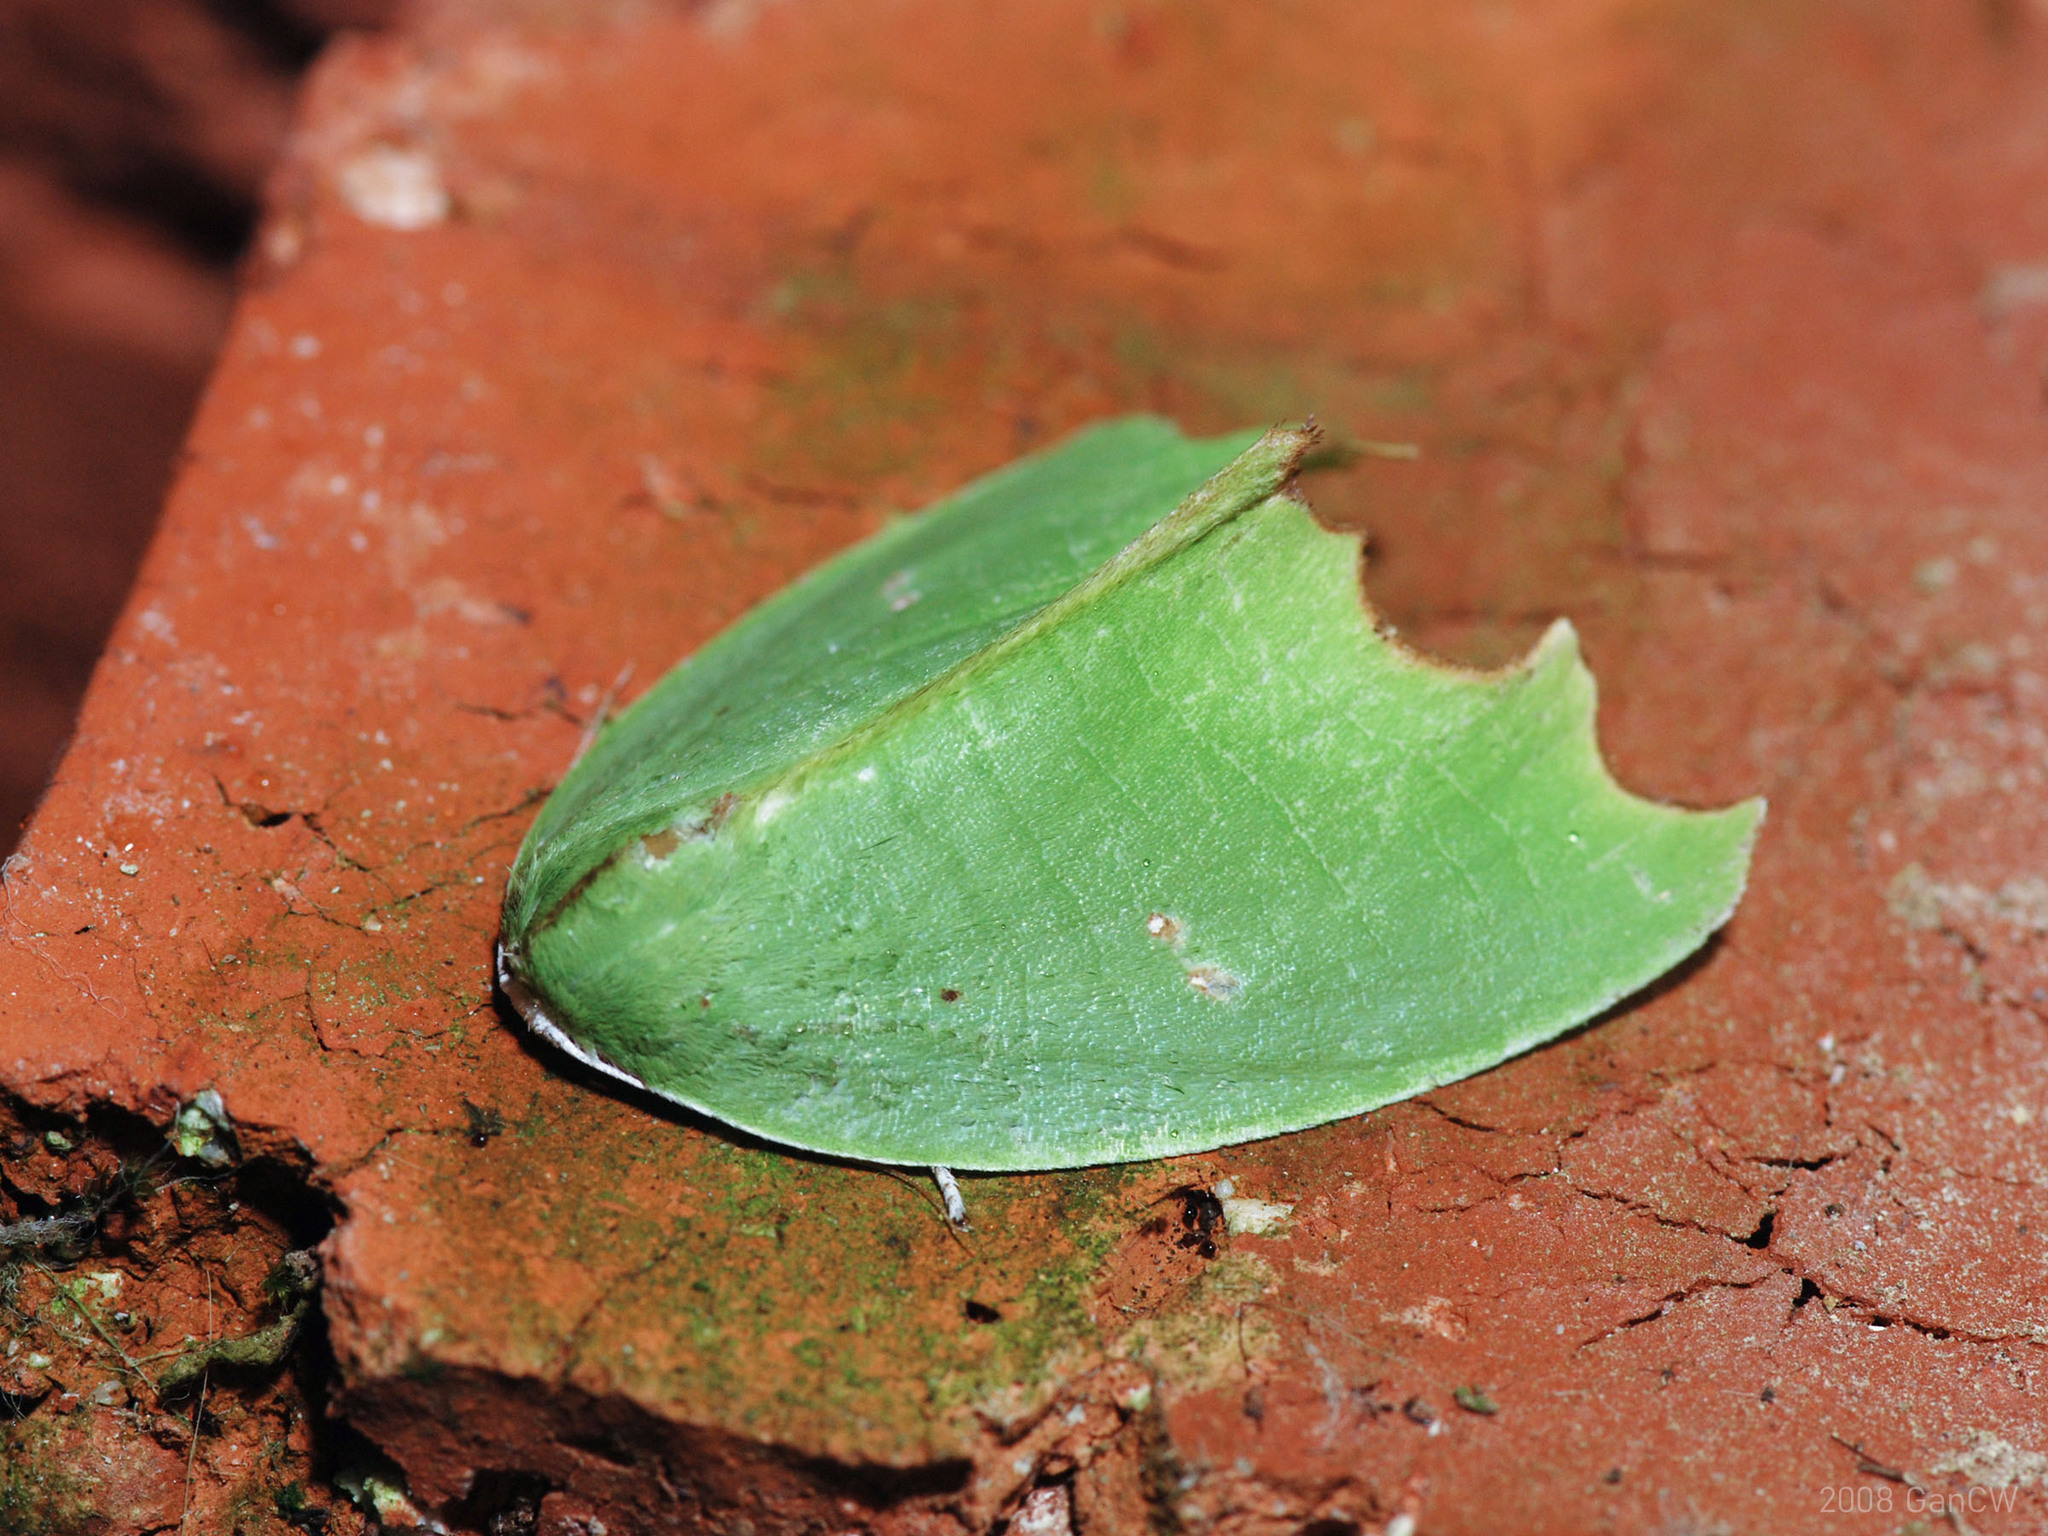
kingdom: Animalia
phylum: Arthropoda
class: Insecta
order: Lepidoptera
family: Noctuidae
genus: Plagerepne
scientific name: Plagerepne torquata
